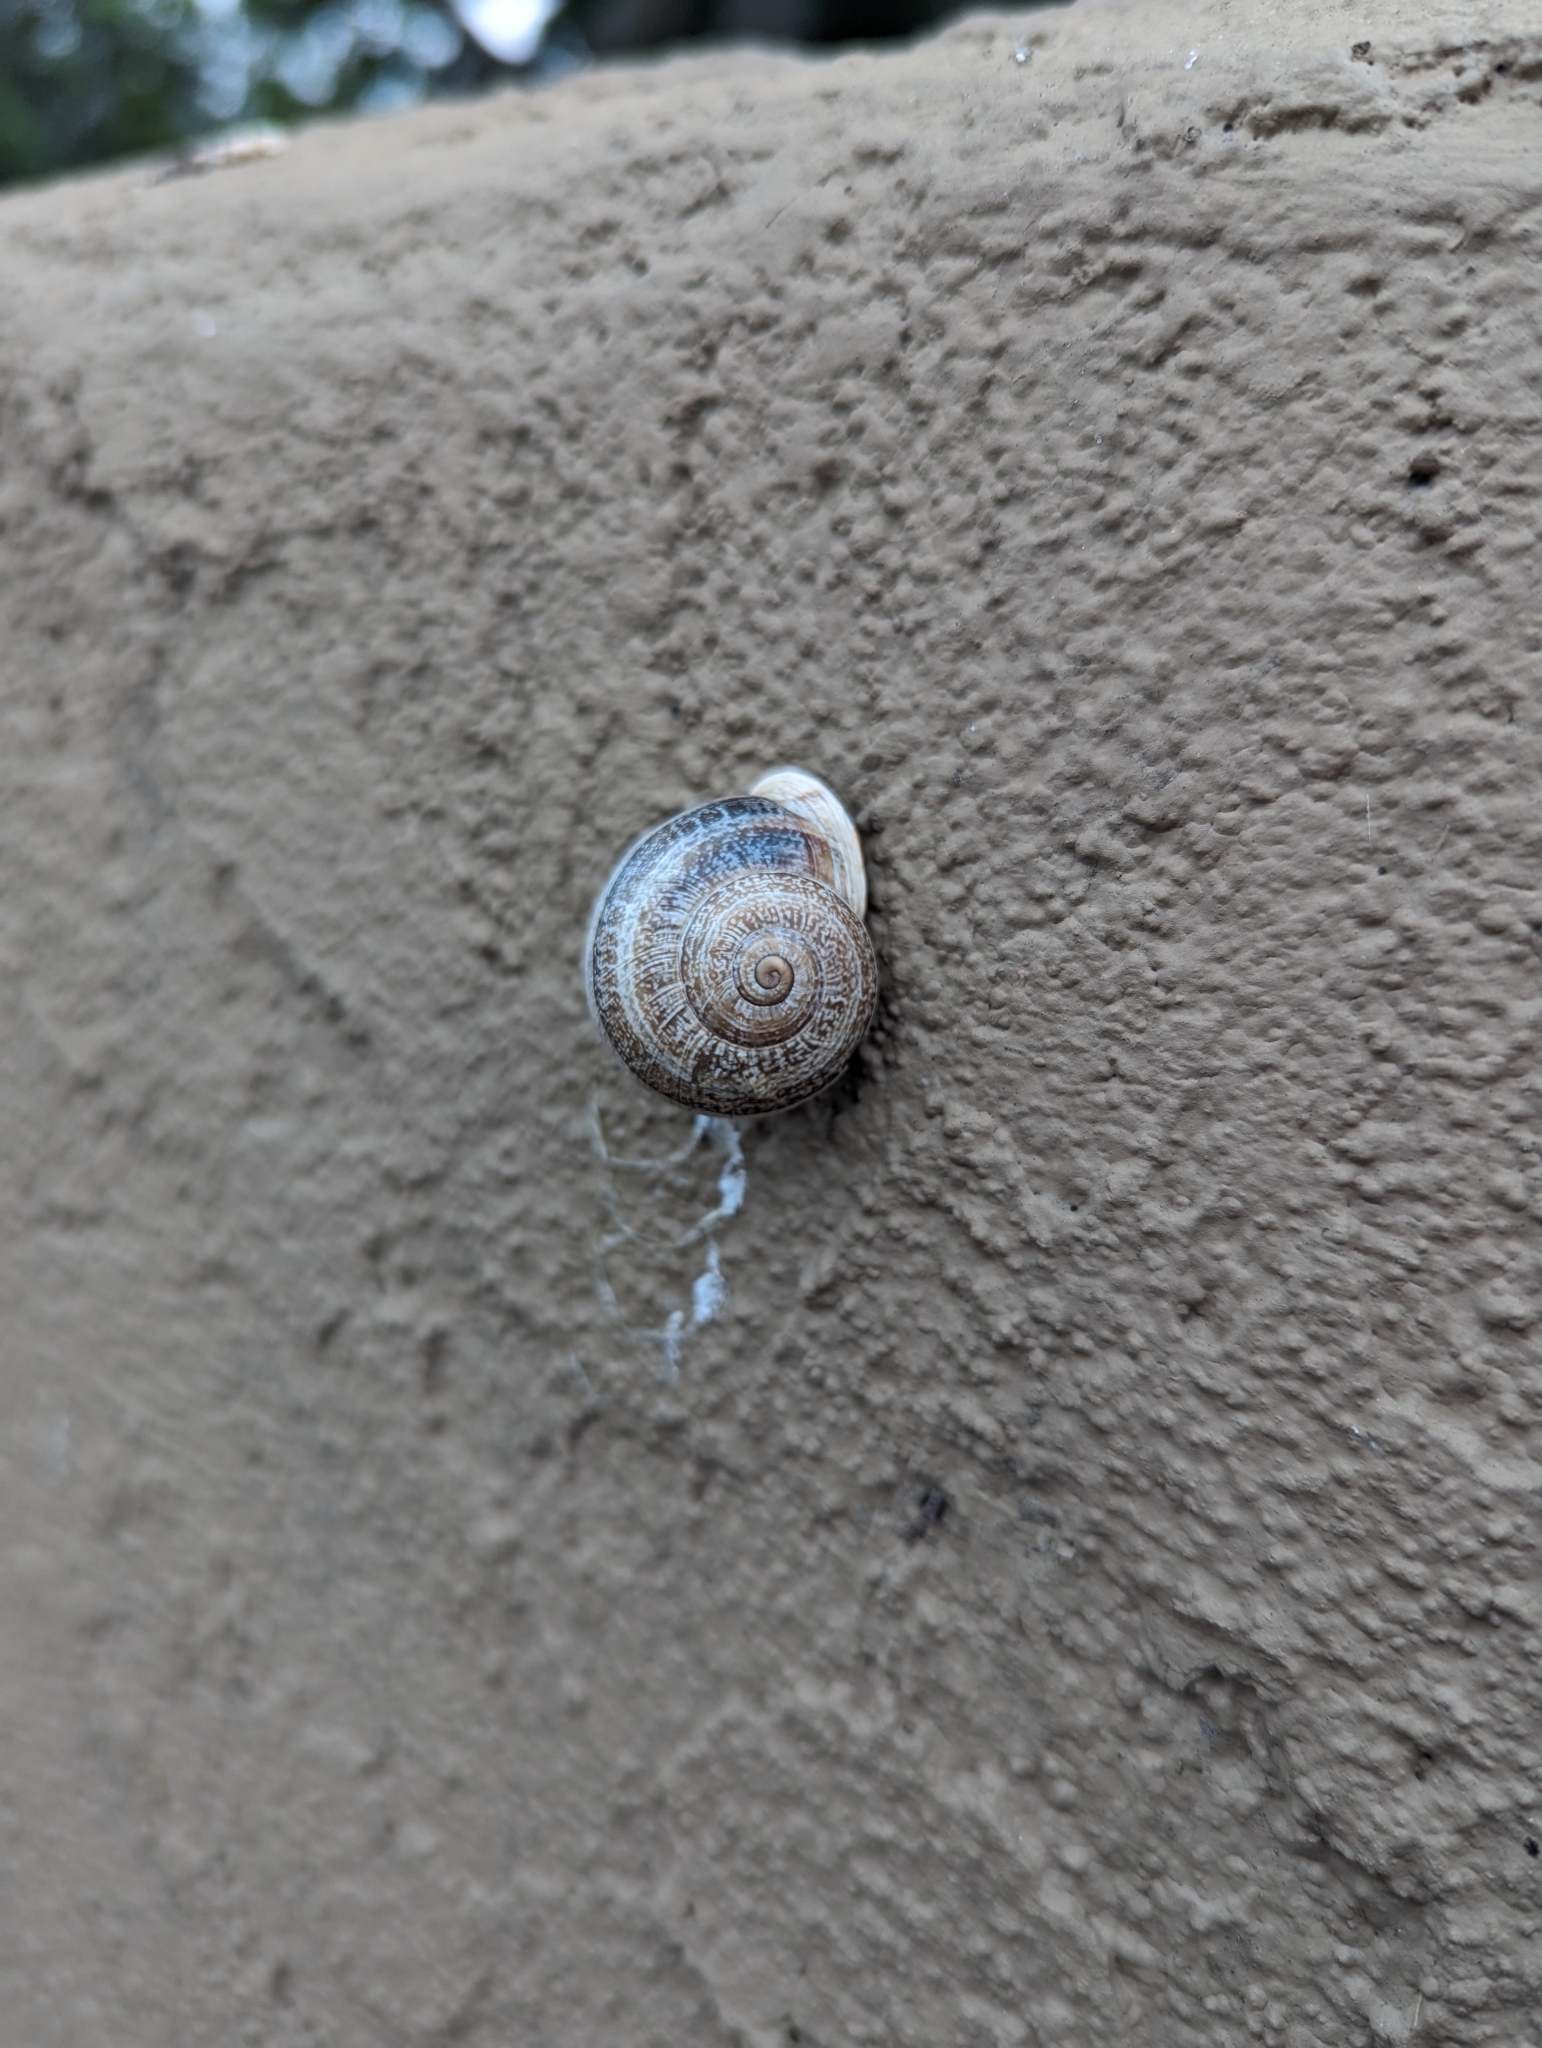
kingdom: Animalia
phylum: Mollusca
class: Gastropoda
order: Stylommatophora
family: Helicidae
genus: Otala
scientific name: Otala lactea
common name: Milk snail
